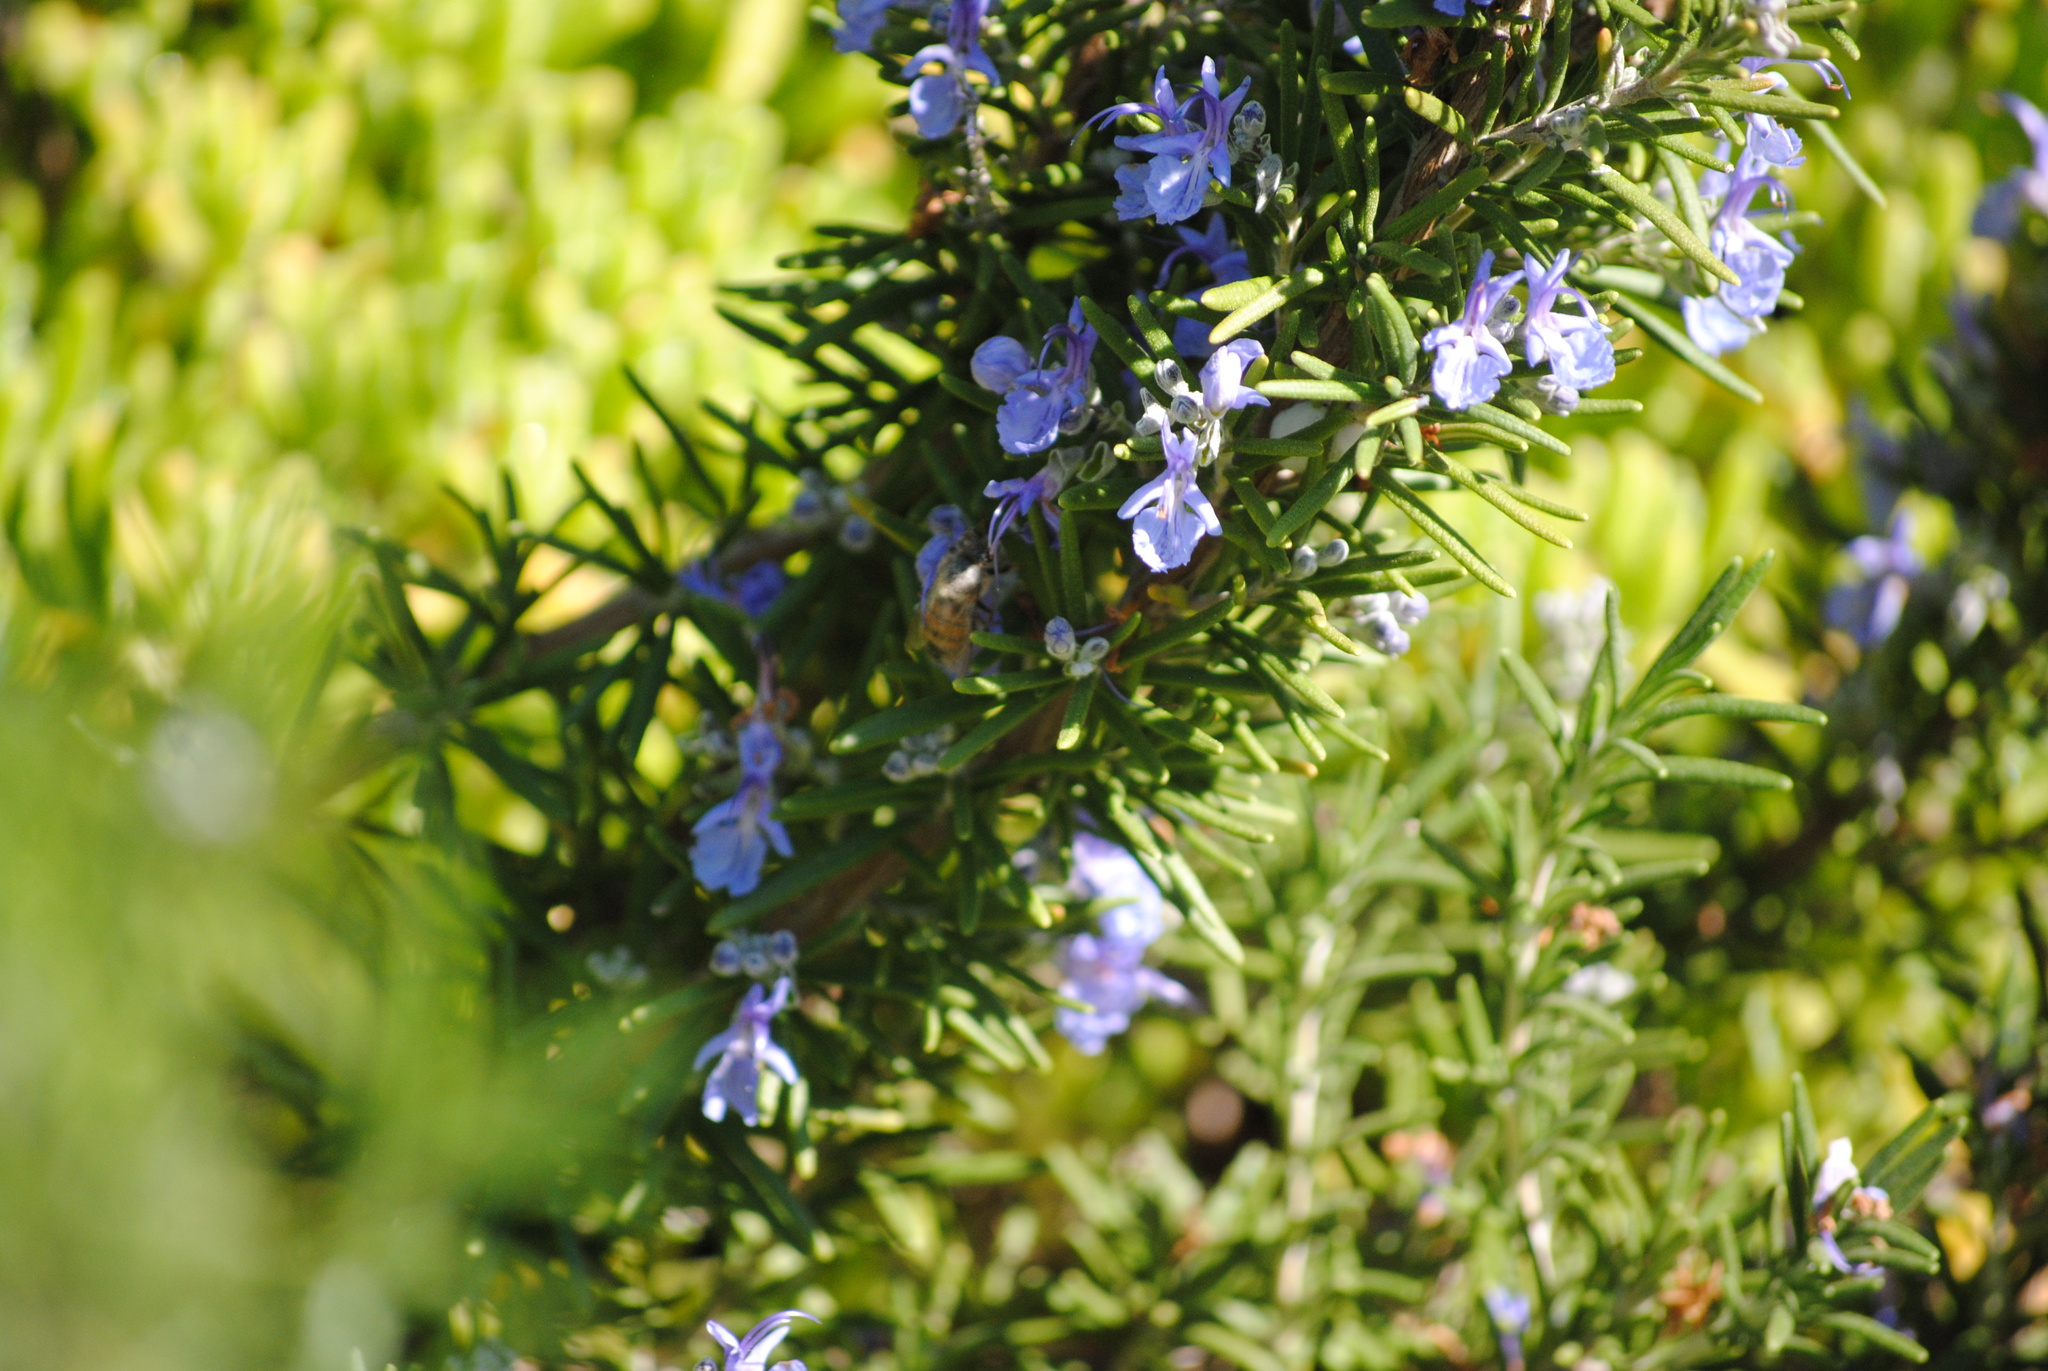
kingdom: Animalia
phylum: Arthropoda
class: Insecta
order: Hymenoptera
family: Apidae
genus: Apis
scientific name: Apis mellifera
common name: Honey bee
